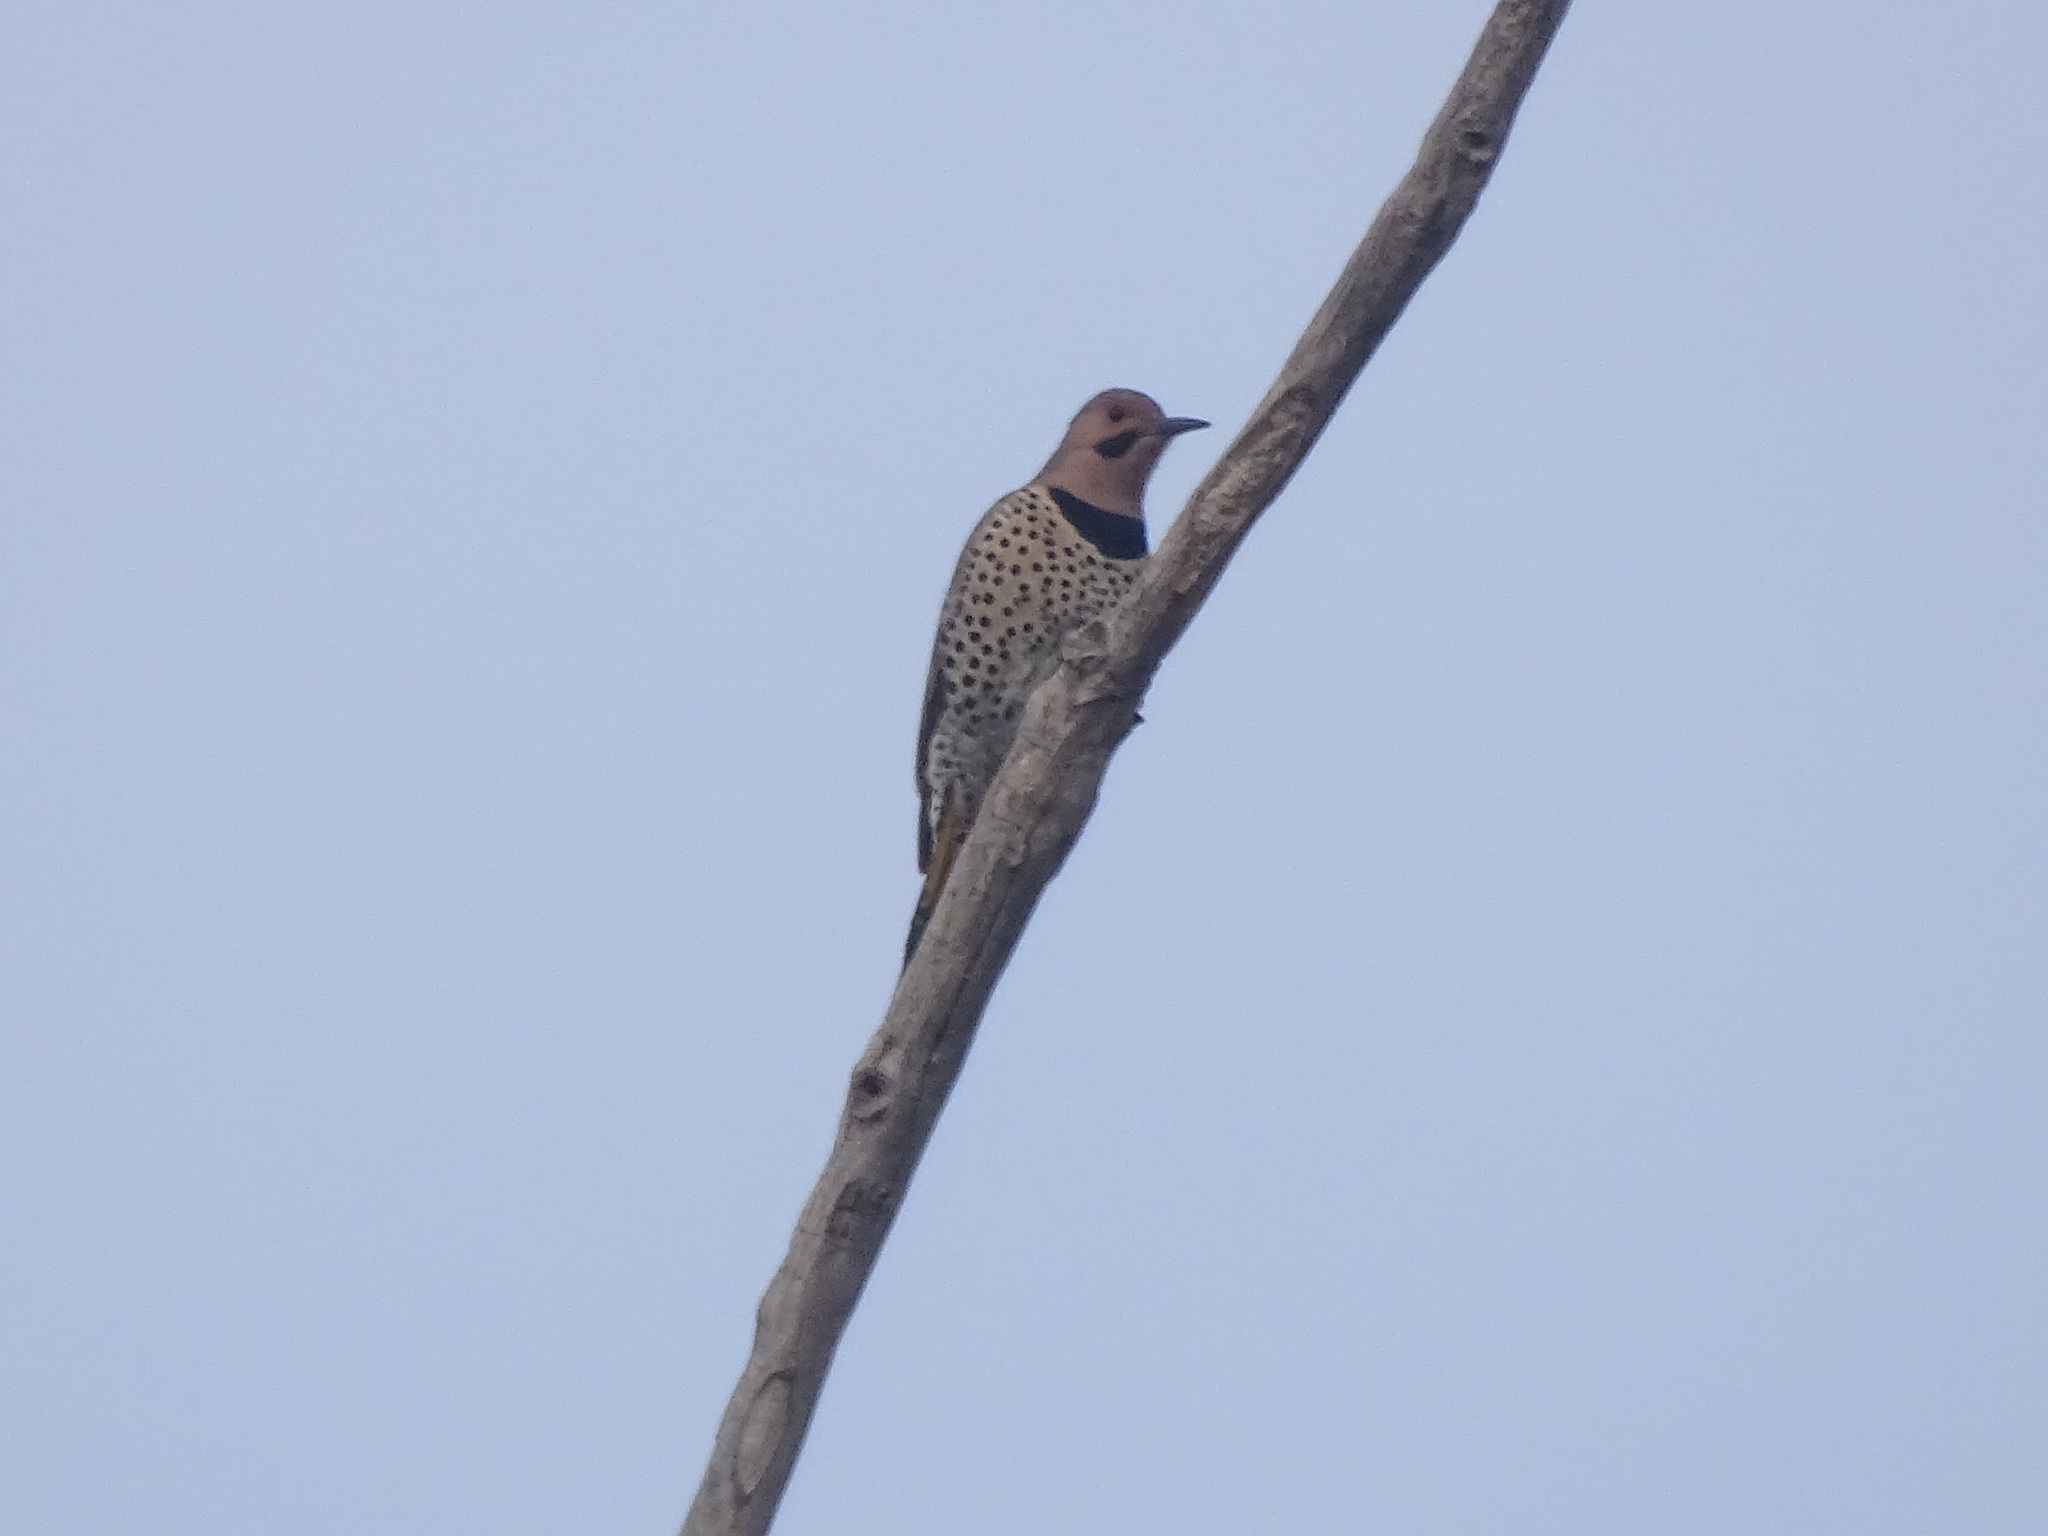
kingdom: Animalia
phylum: Chordata
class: Aves
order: Piciformes
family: Picidae
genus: Colaptes
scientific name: Colaptes auratus
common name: Northern flicker
